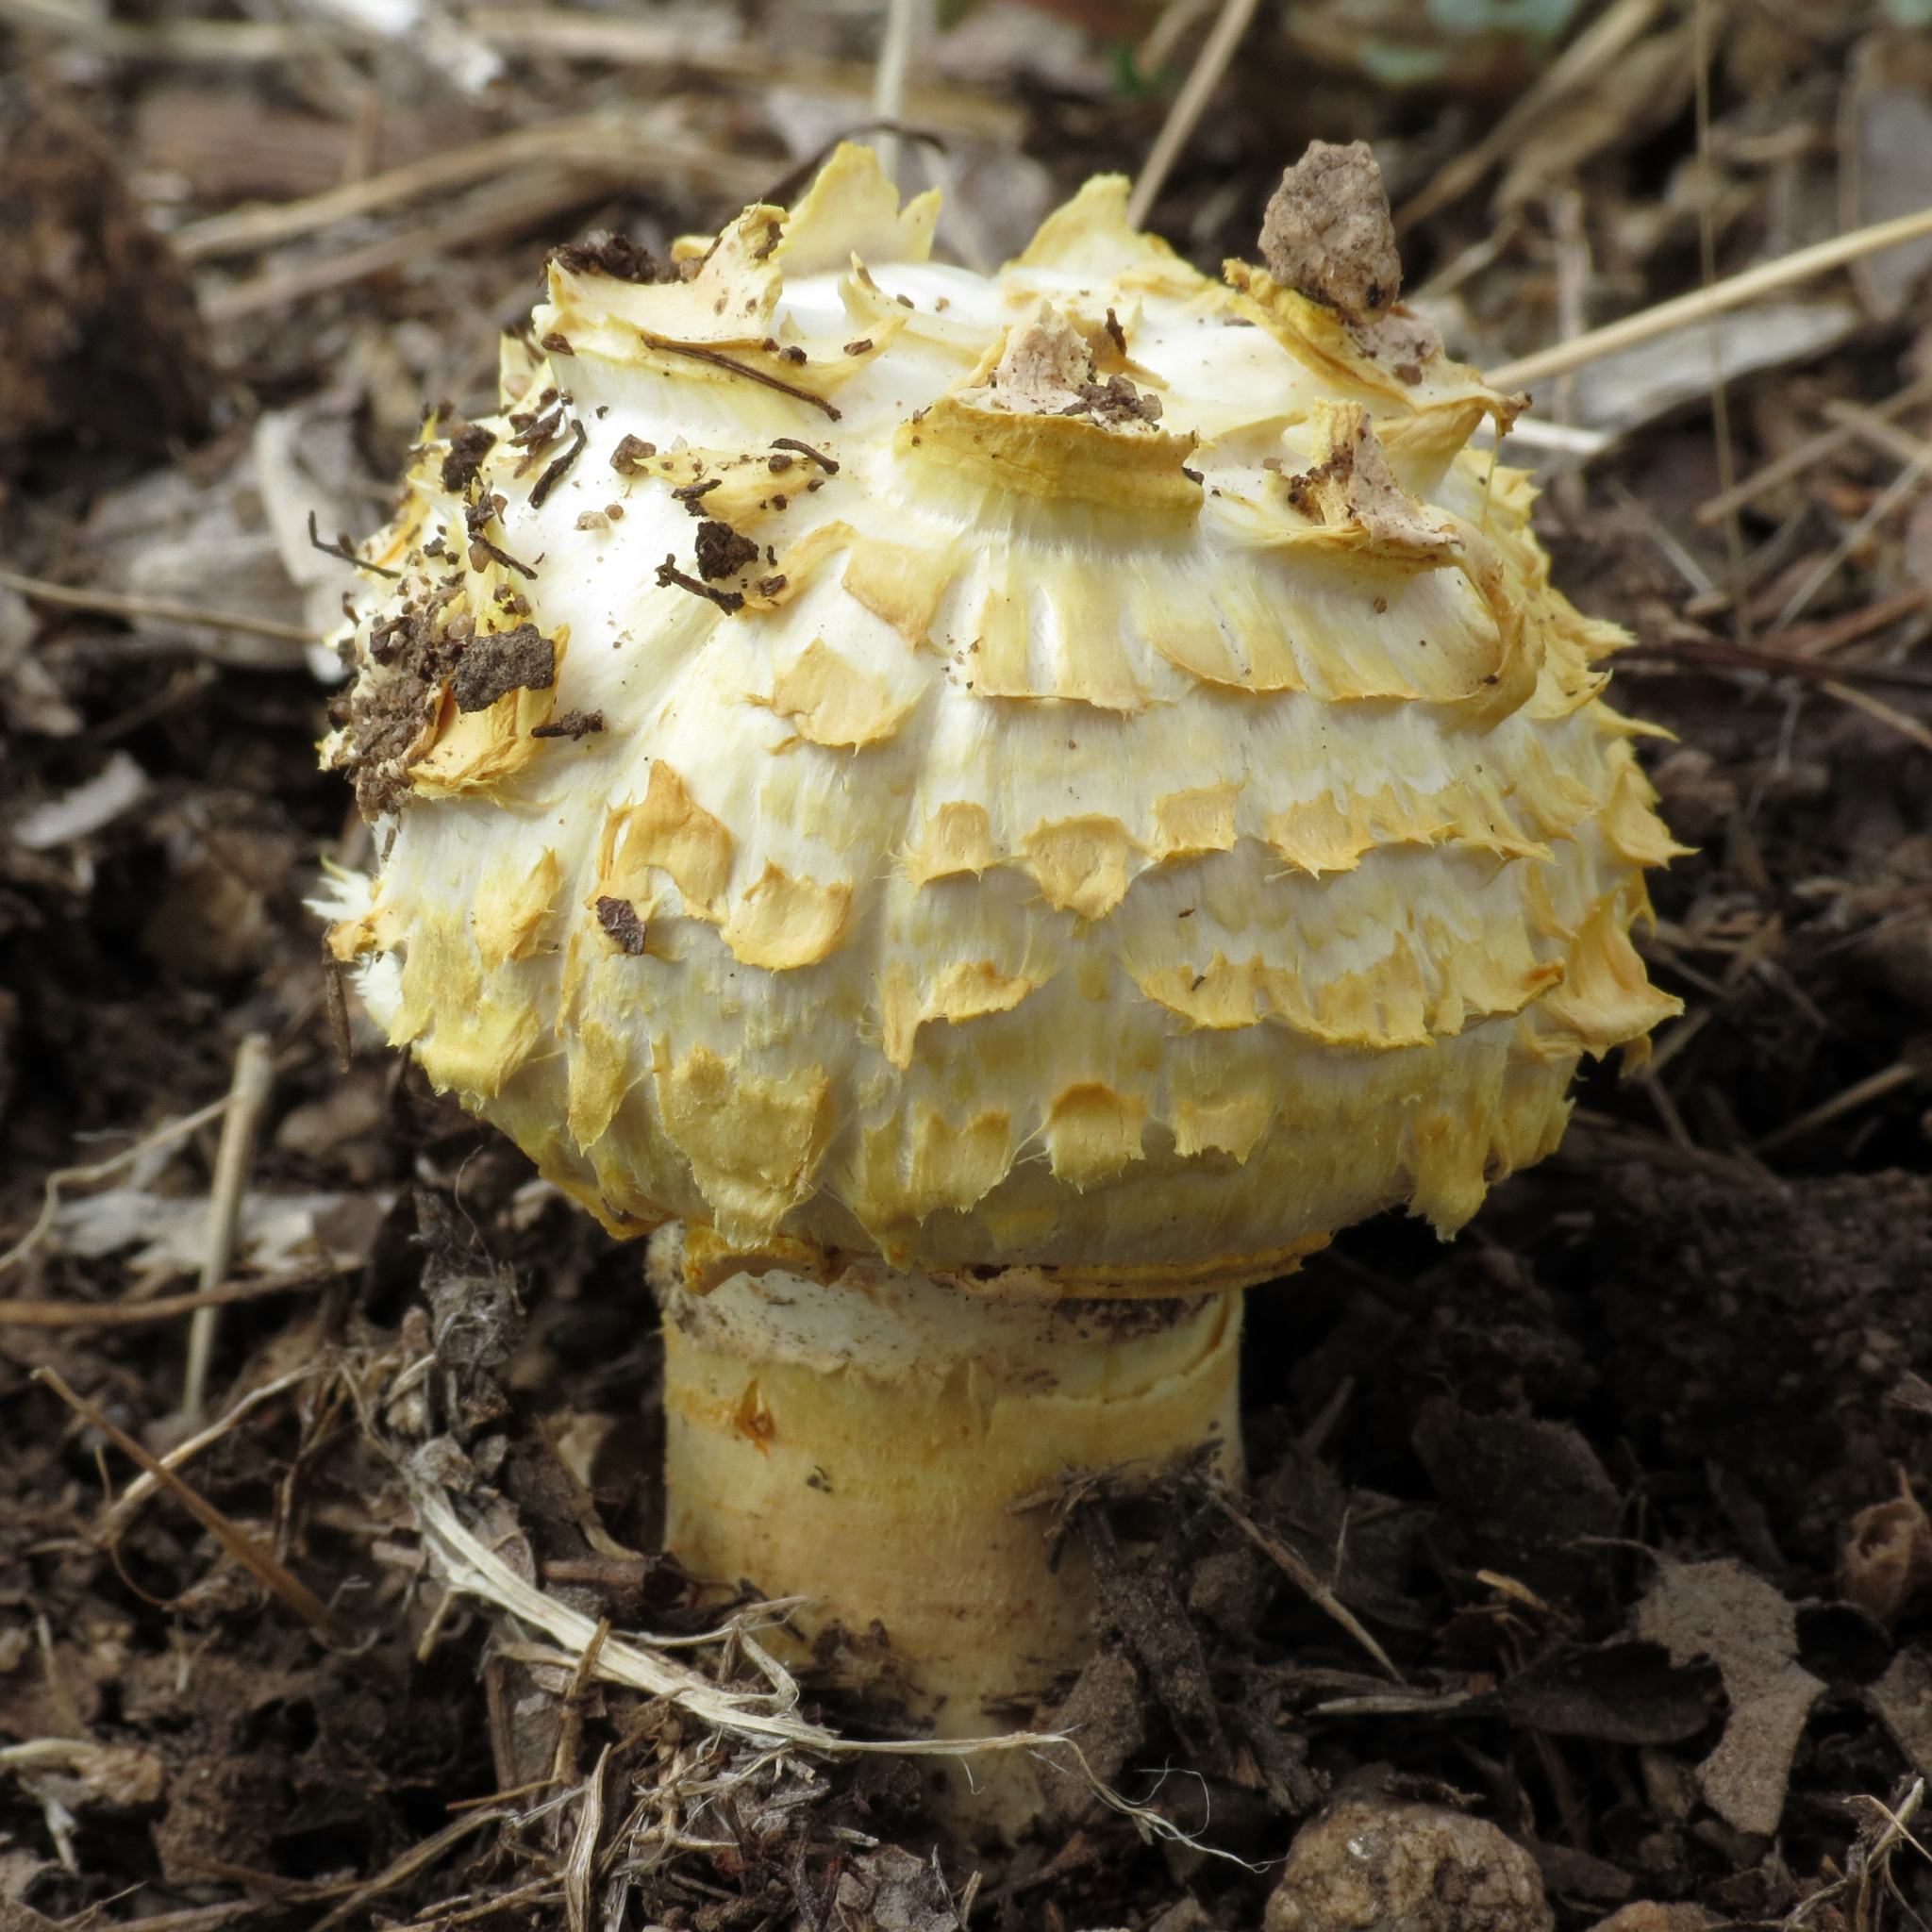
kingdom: Fungi
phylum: Basidiomycota
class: Agaricomycetes
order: Agaricales
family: Agaricaceae
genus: Agaricus
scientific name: Agaricus deserticola
